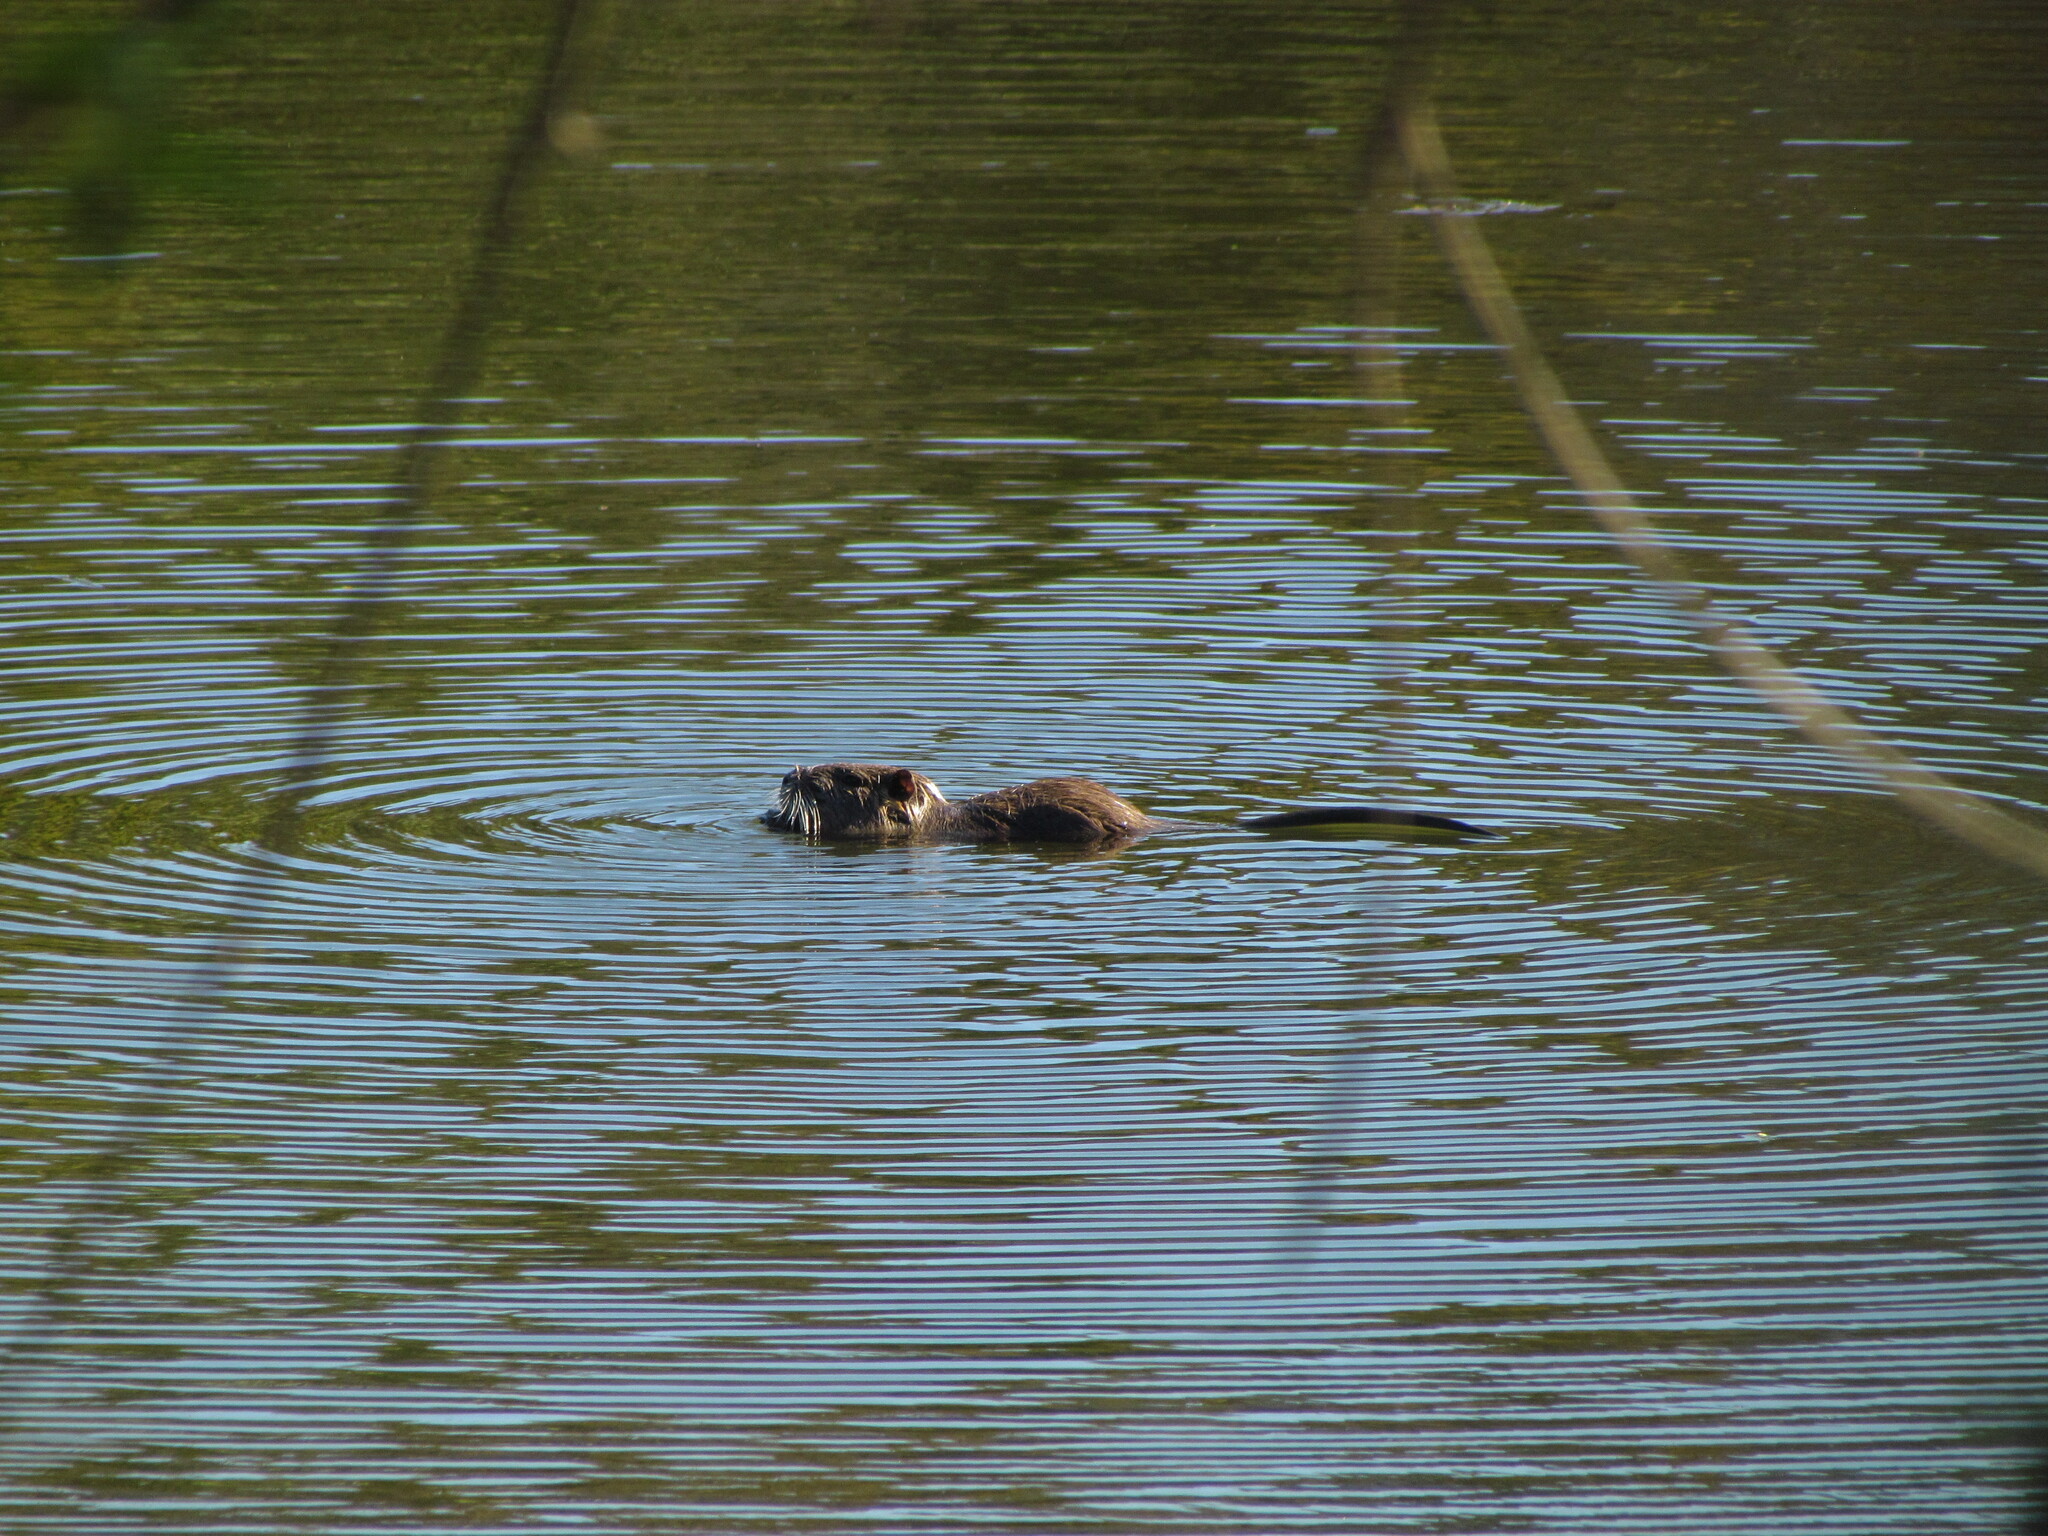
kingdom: Animalia
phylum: Chordata
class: Mammalia
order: Rodentia
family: Myocastoridae
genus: Myocastor
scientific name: Myocastor coypus
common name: Coypu
